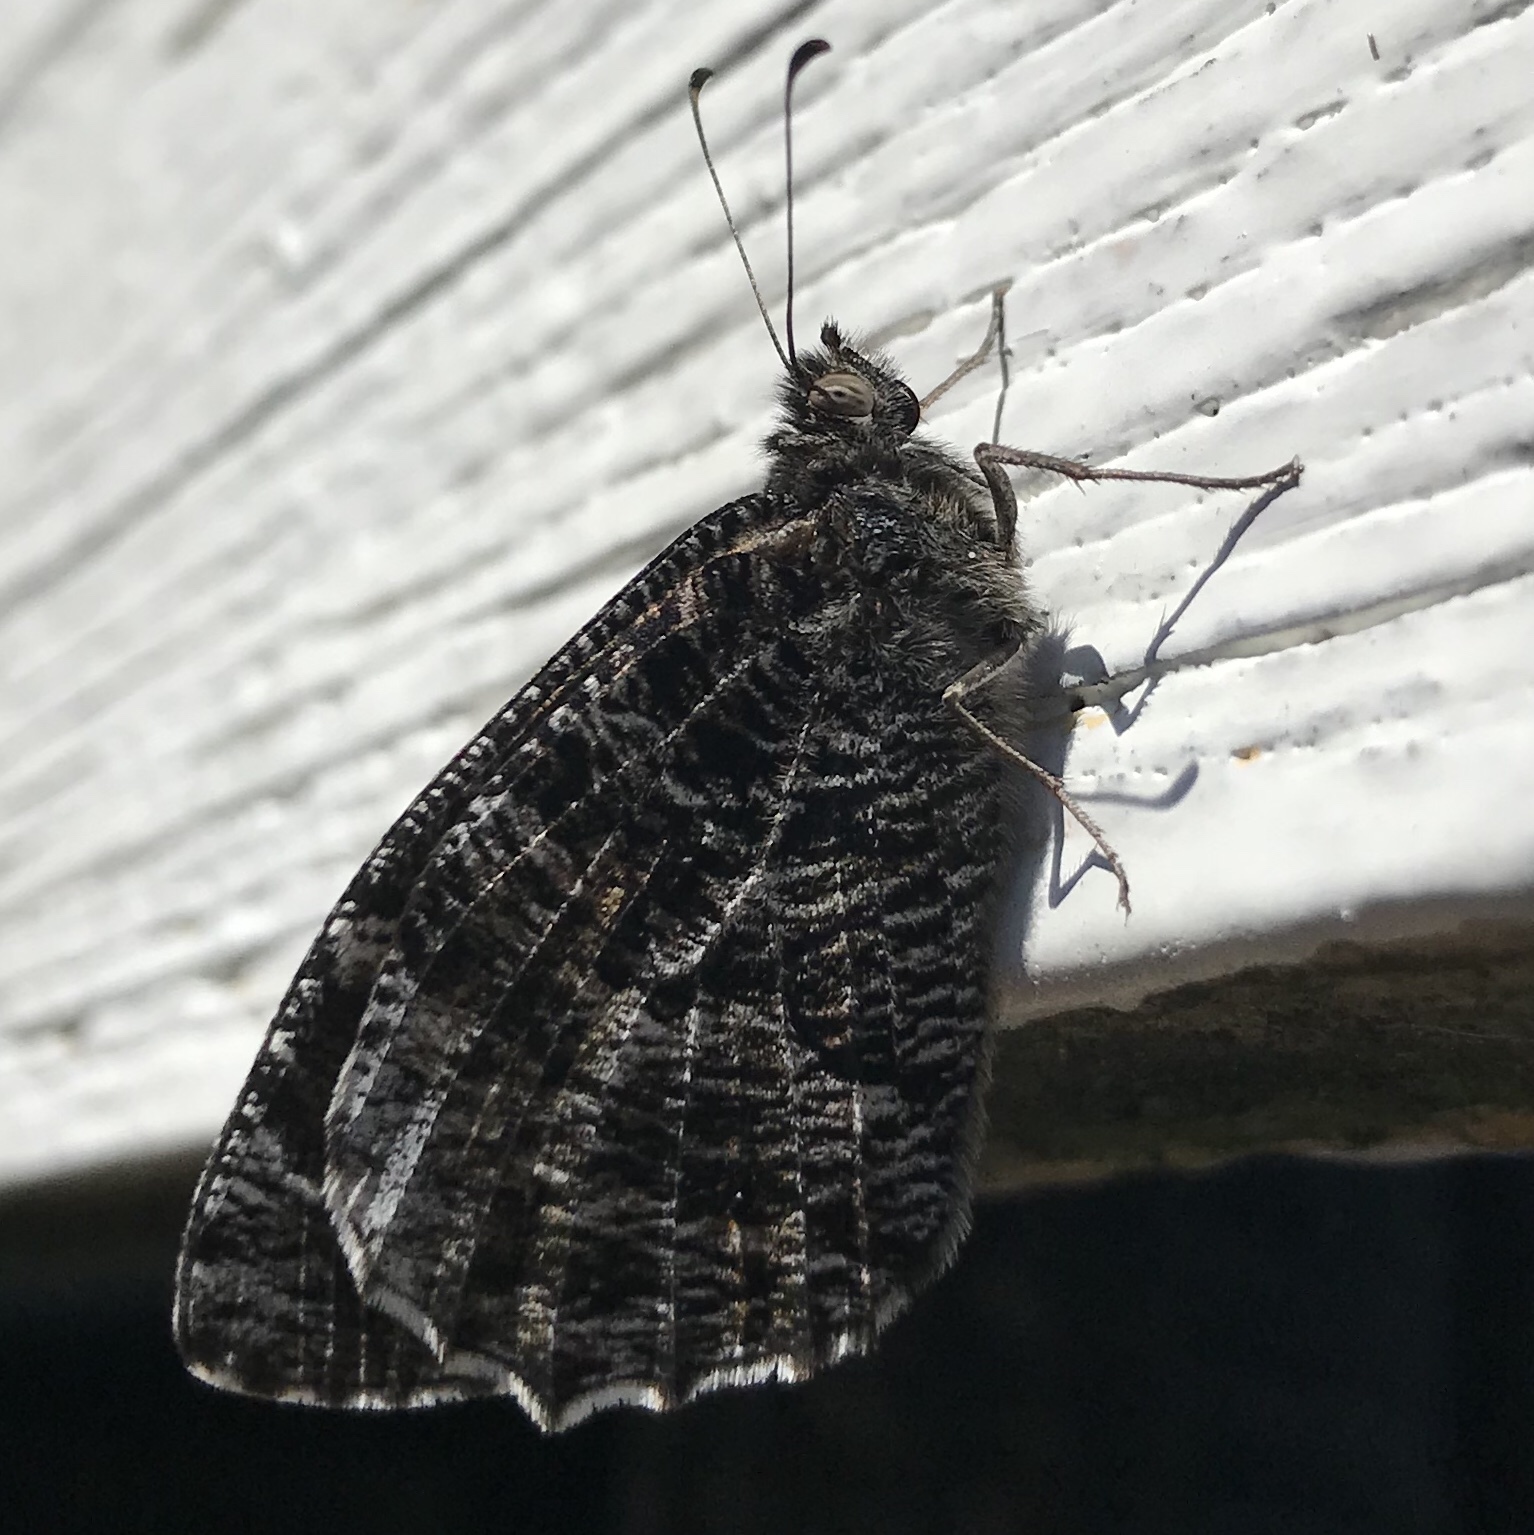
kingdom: Animalia
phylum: Arthropoda
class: Insecta
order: Lepidoptera
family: Nymphalidae
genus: Hipparchia
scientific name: Hipparchia semele
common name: Grayling
